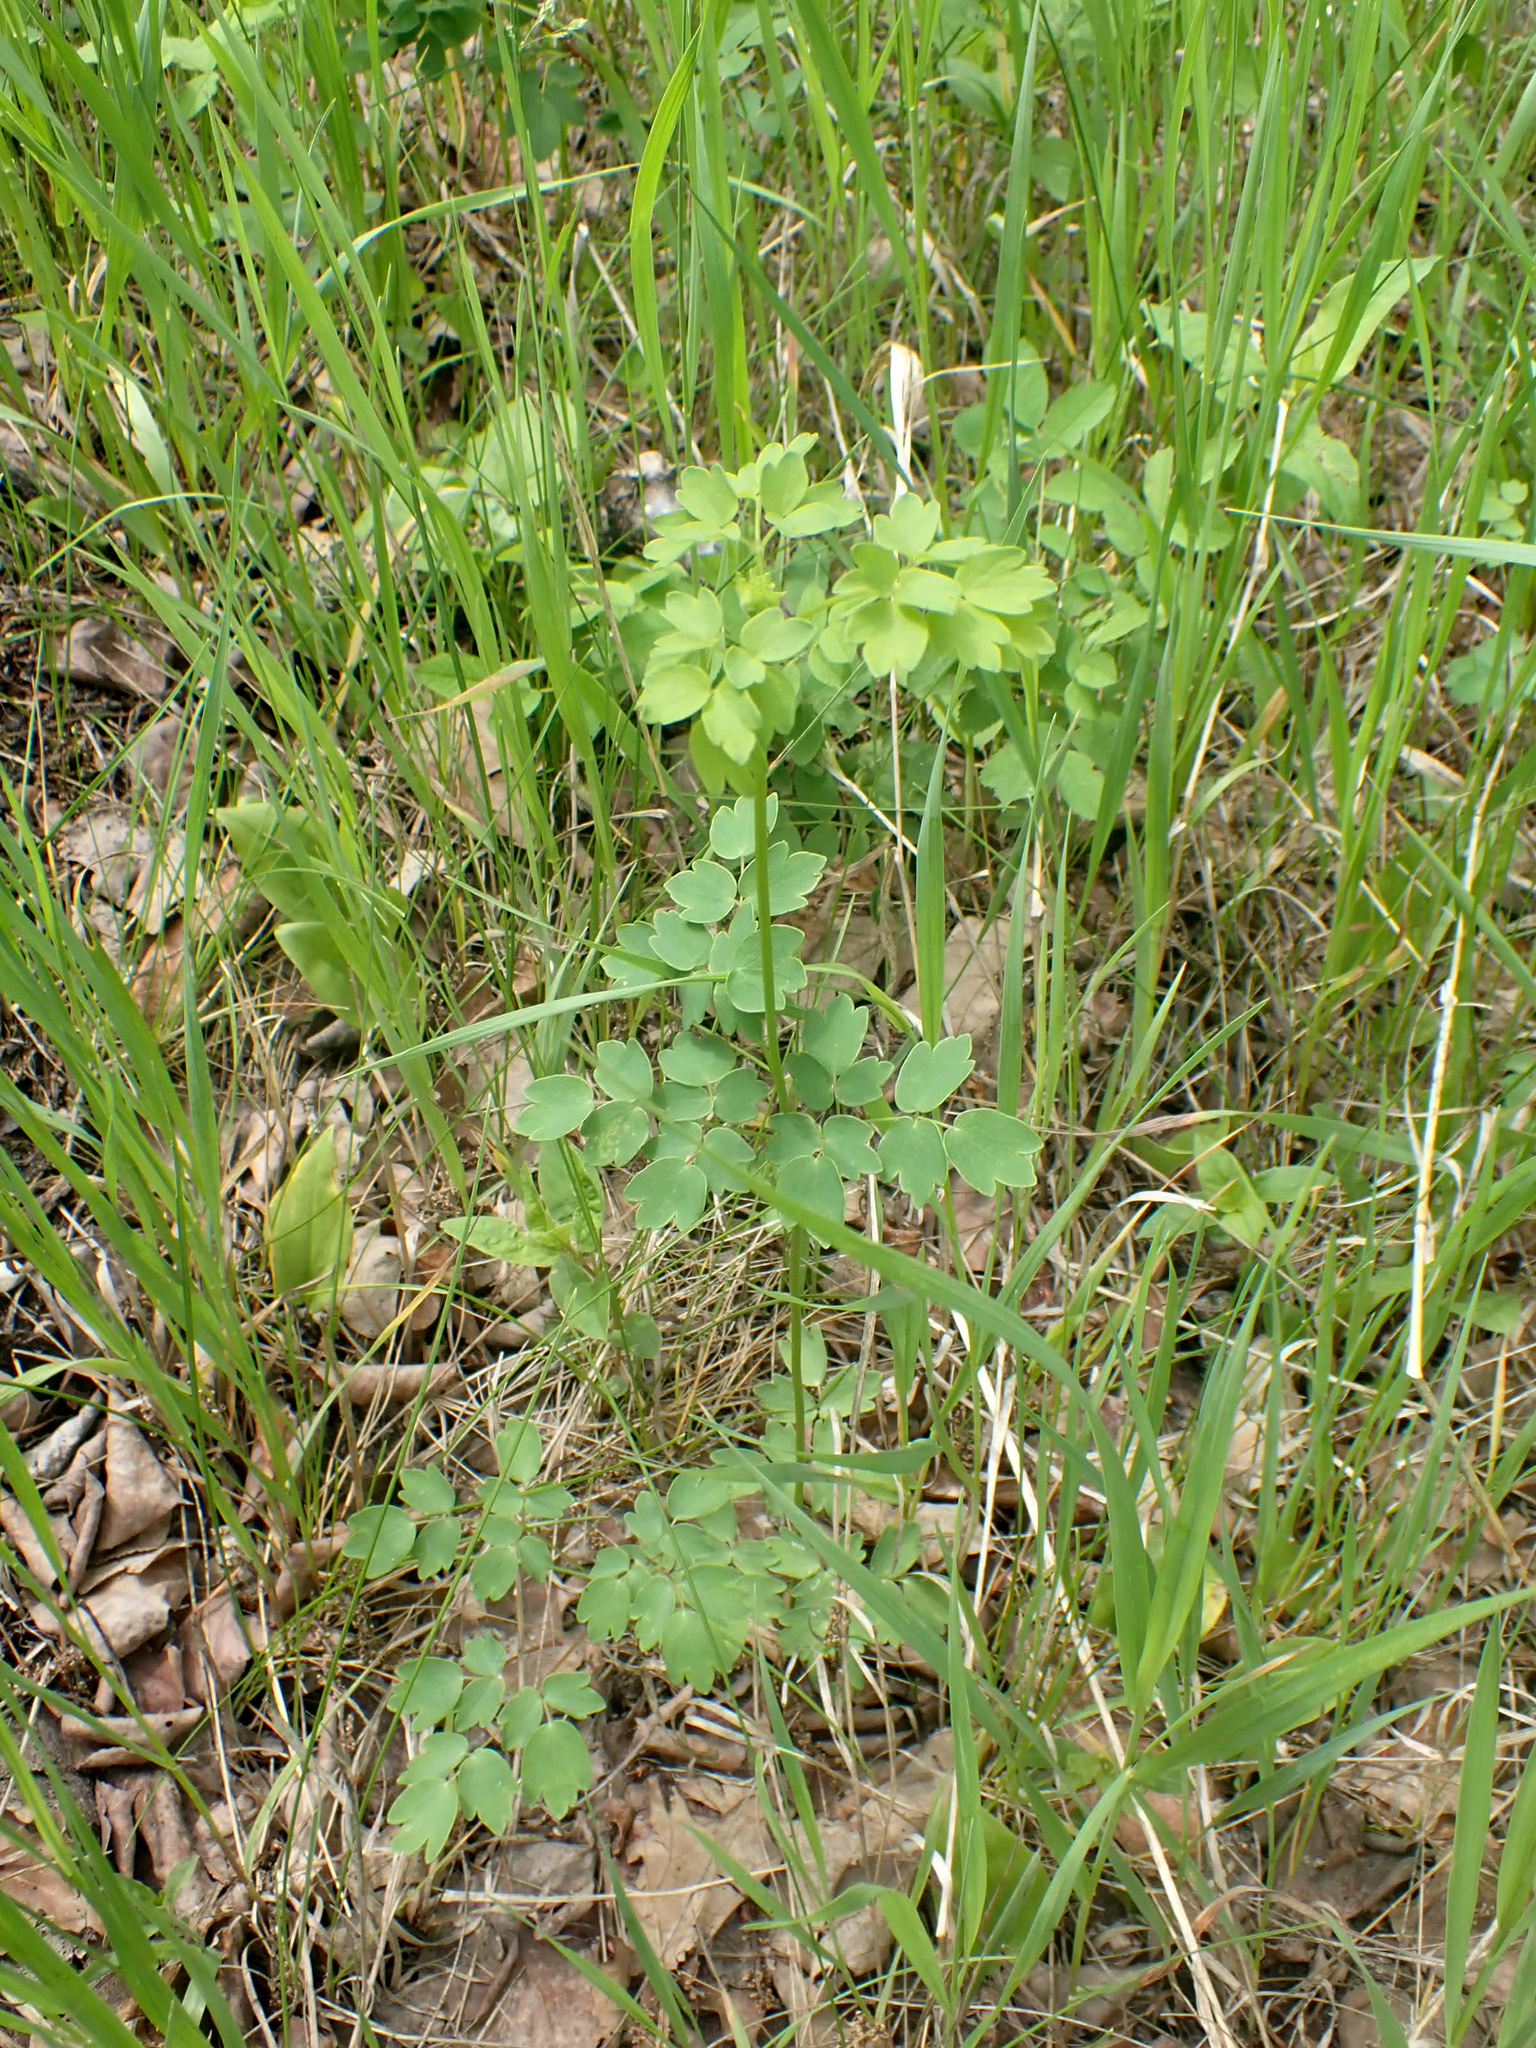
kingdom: Plantae
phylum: Tracheophyta
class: Magnoliopsida
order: Ranunculales
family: Ranunculaceae
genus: Thalictrum
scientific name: Thalictrum venulosum
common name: Early meadow-rue
